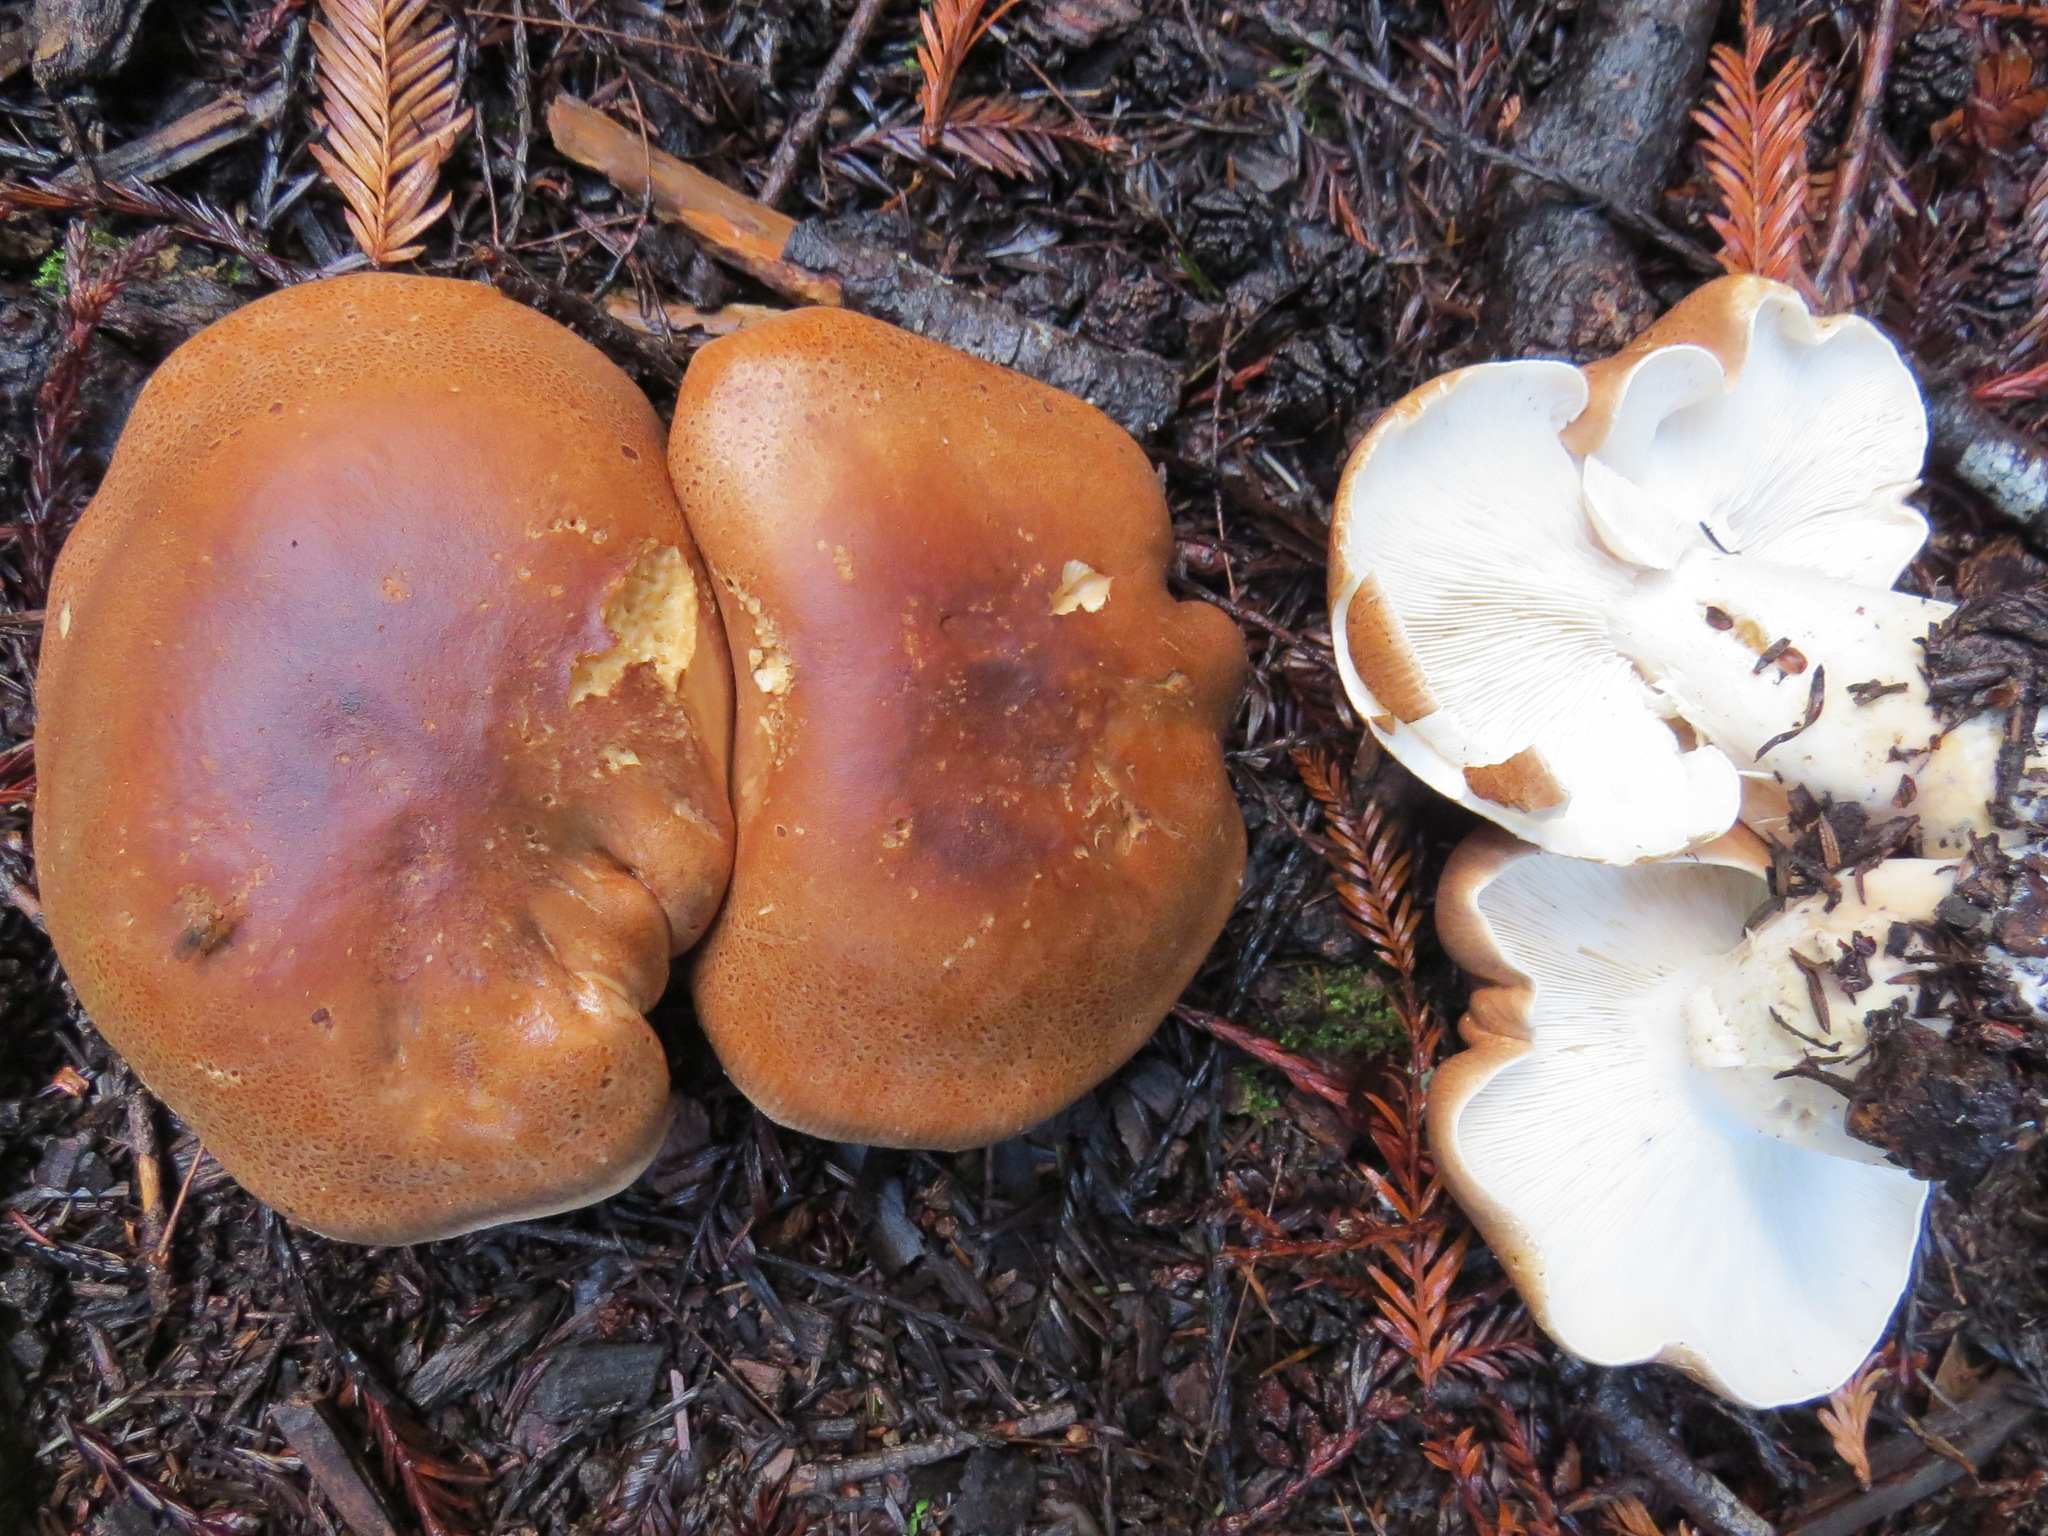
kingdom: Fungi
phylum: Basidiomycota
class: Agaricomycetes
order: Agaricales
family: Tricholomataceae
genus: Leucopaxillus
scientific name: Leucopaxillus gentianeus
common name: Bitter funnel
